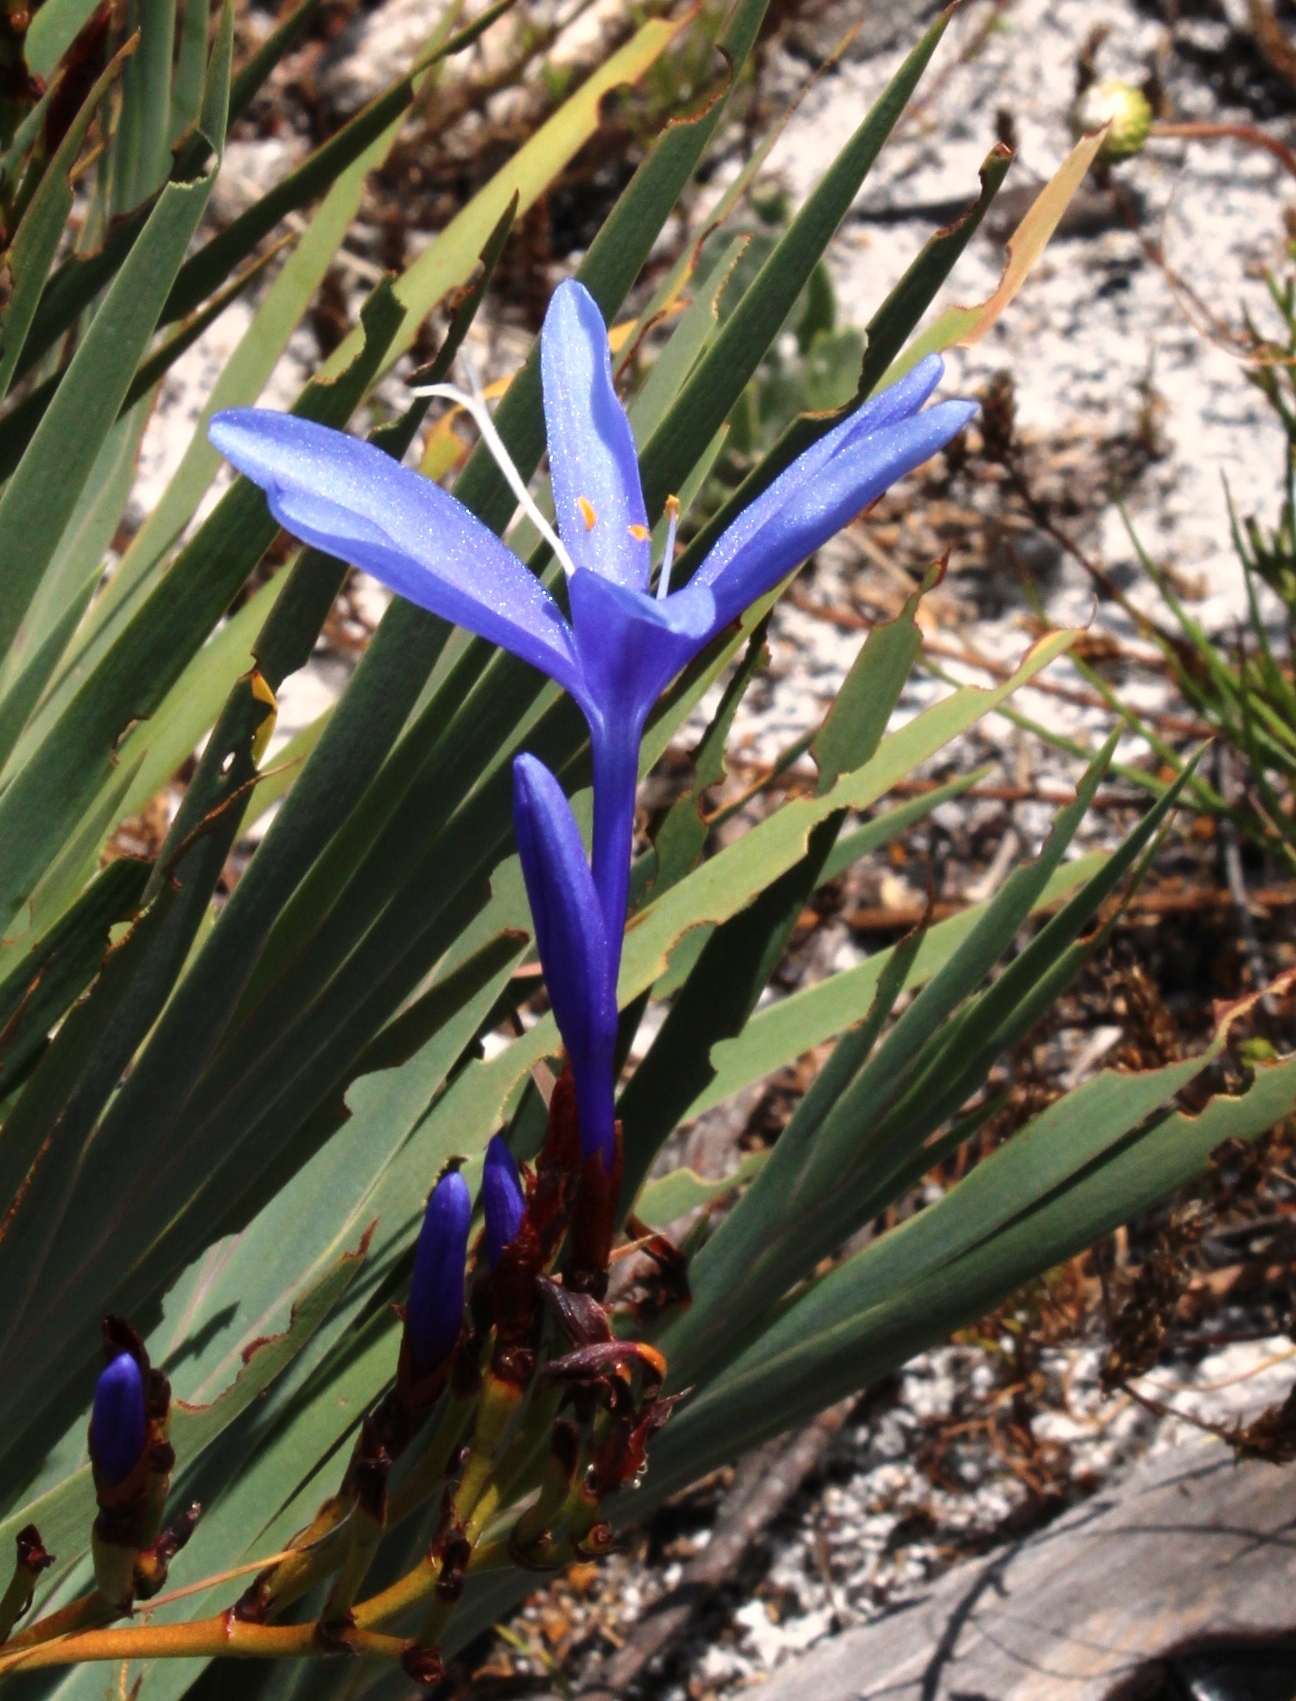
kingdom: Plantae
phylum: Tracheophyta
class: Liliopsida
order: Asparagales
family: Iridaceae
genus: Nivenia
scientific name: Nivenia stokoei
